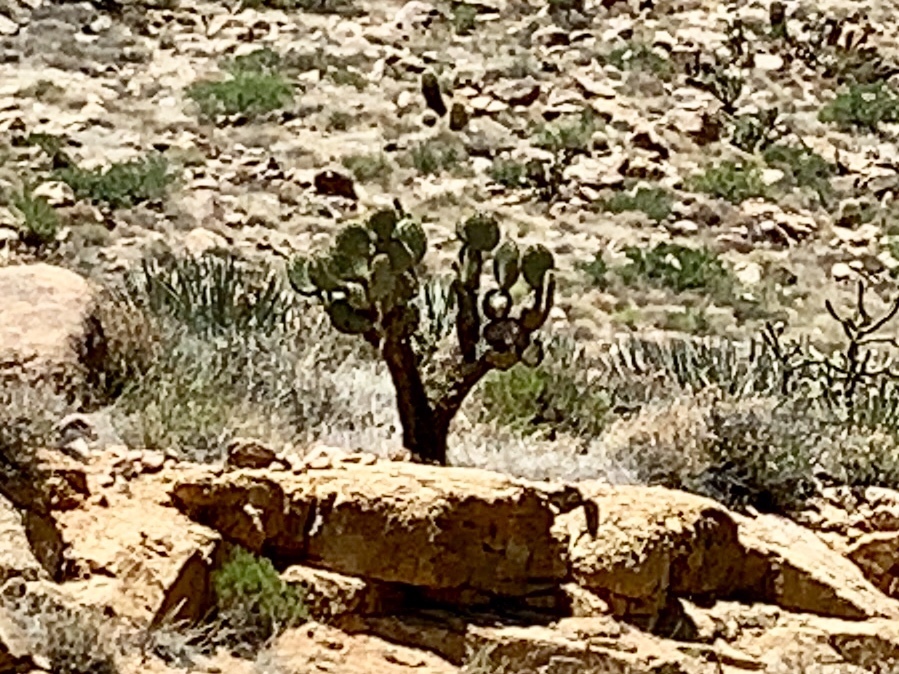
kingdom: Plantae
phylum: Tracheophyta
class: Magnoliopsida
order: Caryophyllales
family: Cactaceae
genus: Opuntia
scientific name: Opuntia chlorotica
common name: Dollar-joint prickly-pear
